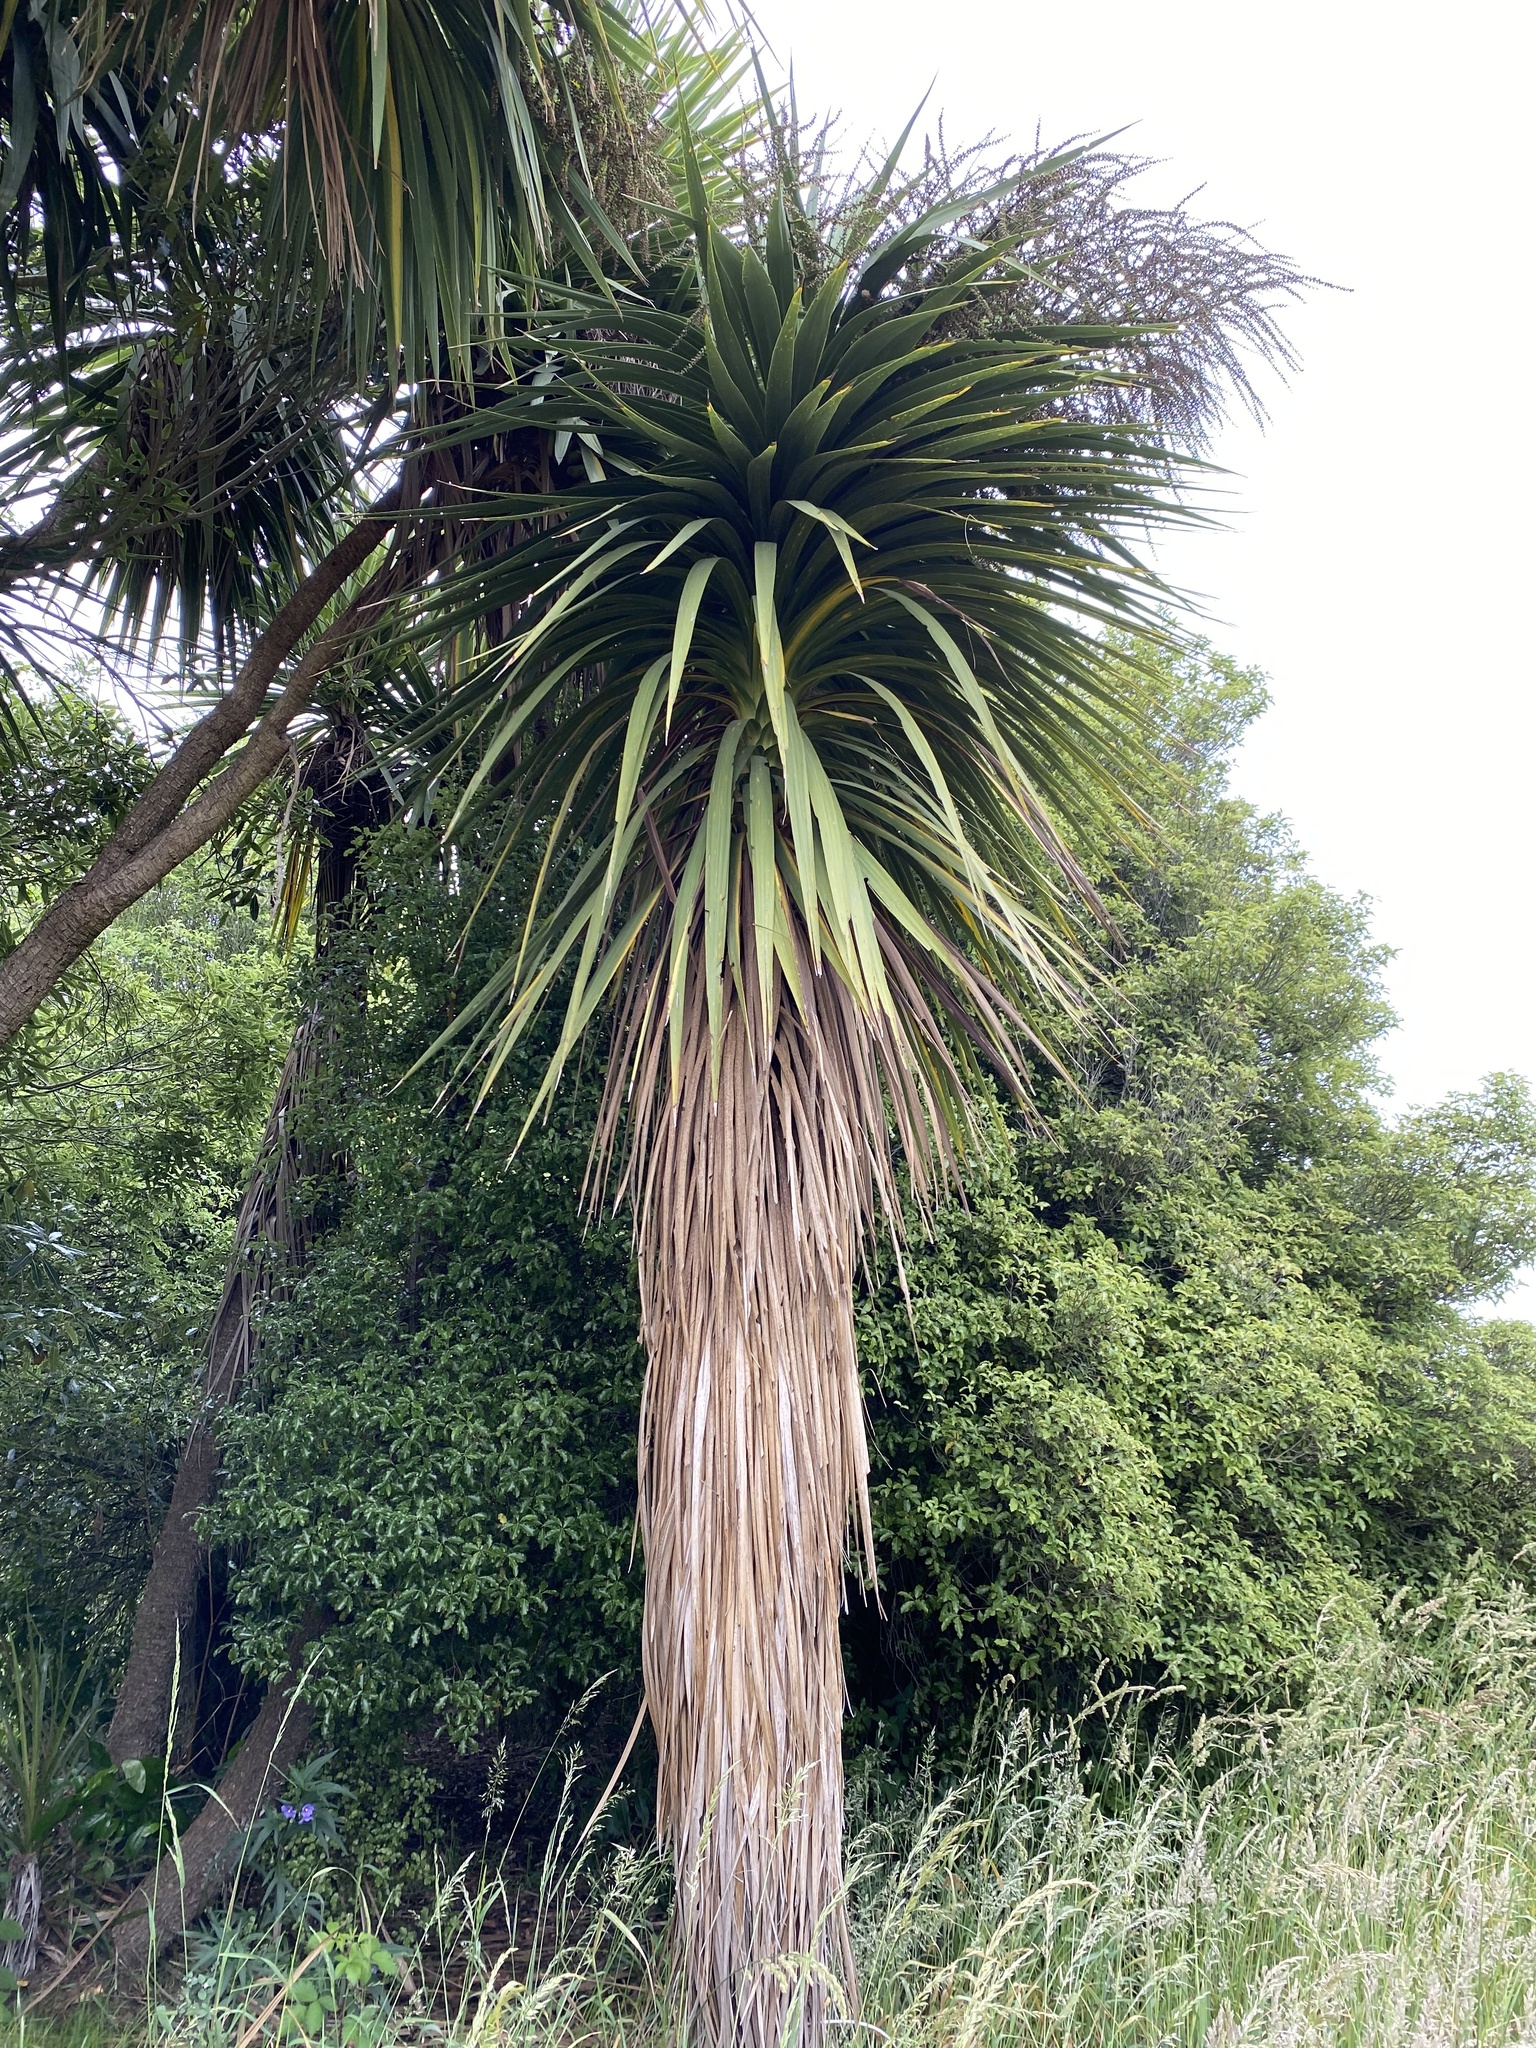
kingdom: Plantae
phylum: Tracheophyta
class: Liliopsida
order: Asparagales
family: Asparagaceae
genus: Cordyline
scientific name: Cordyline australis
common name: Cabbage-palm
